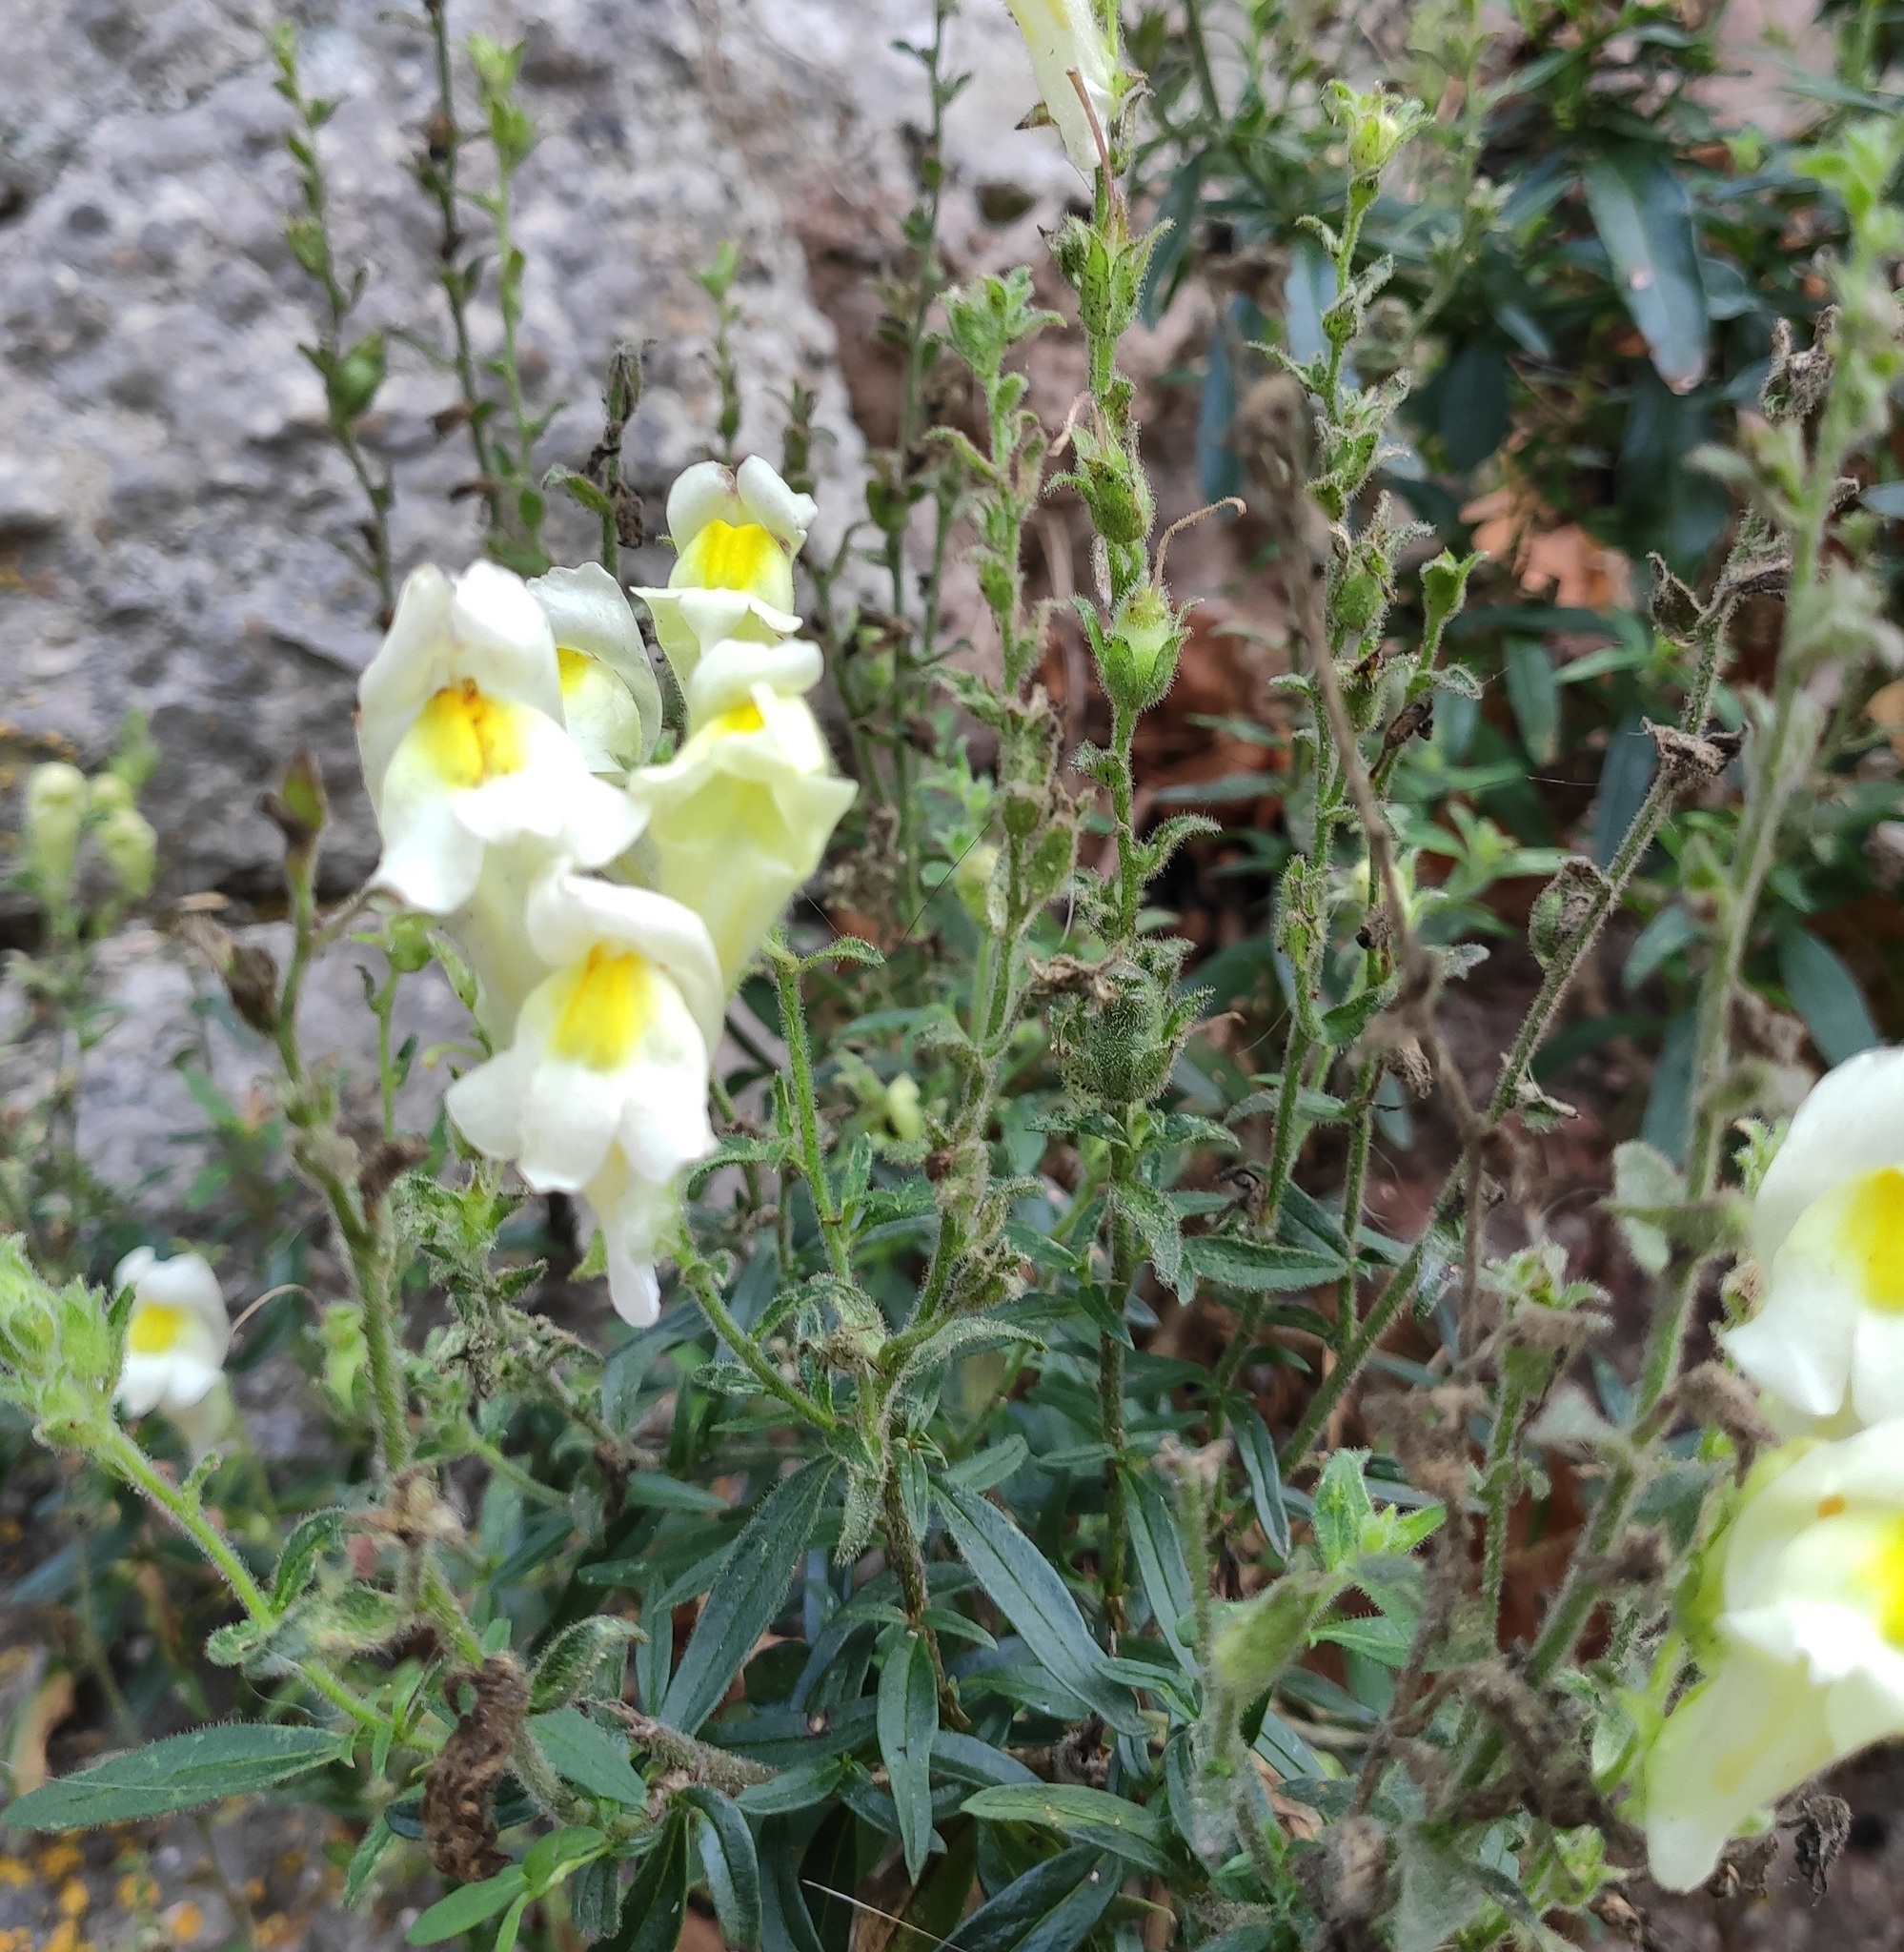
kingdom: Plantae
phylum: Tracheophyta
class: Magnoliopsida
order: Lamiales
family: Plantaginaceae
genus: Antirrhinum
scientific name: Antirrhinum braun-blanquetii
